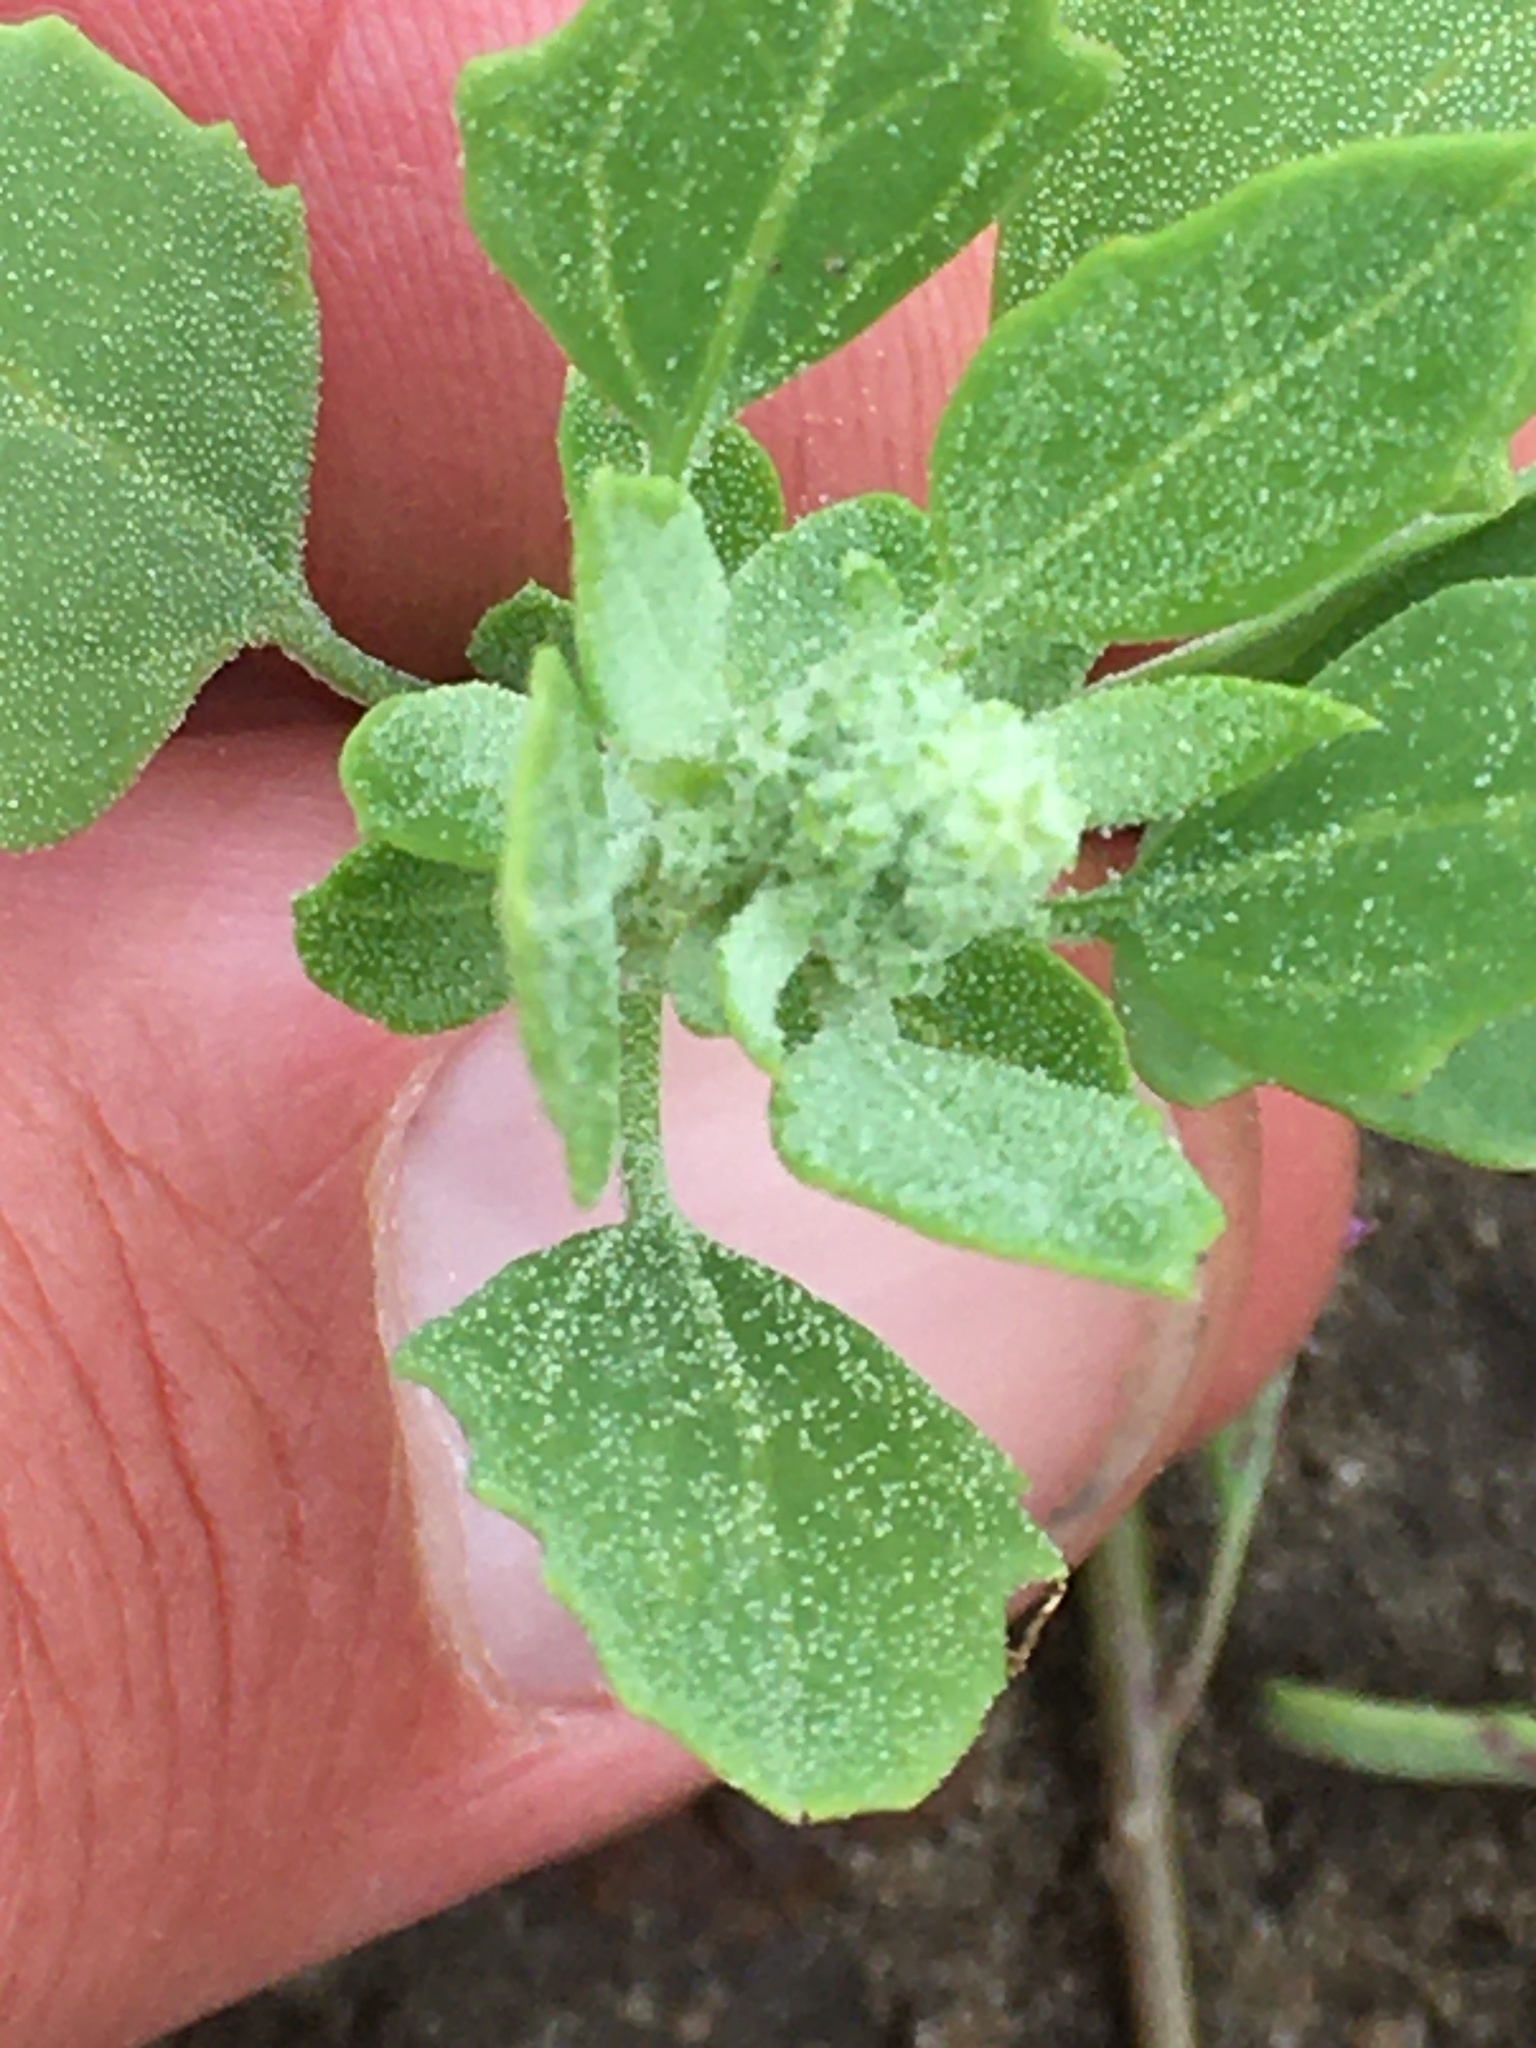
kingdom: Plantae
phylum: Tracheophyta
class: Magnoliopsida
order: Caryophyllales
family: Amaranthaceae
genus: Chenopodium
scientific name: Chenopodium album
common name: Fat-hen
